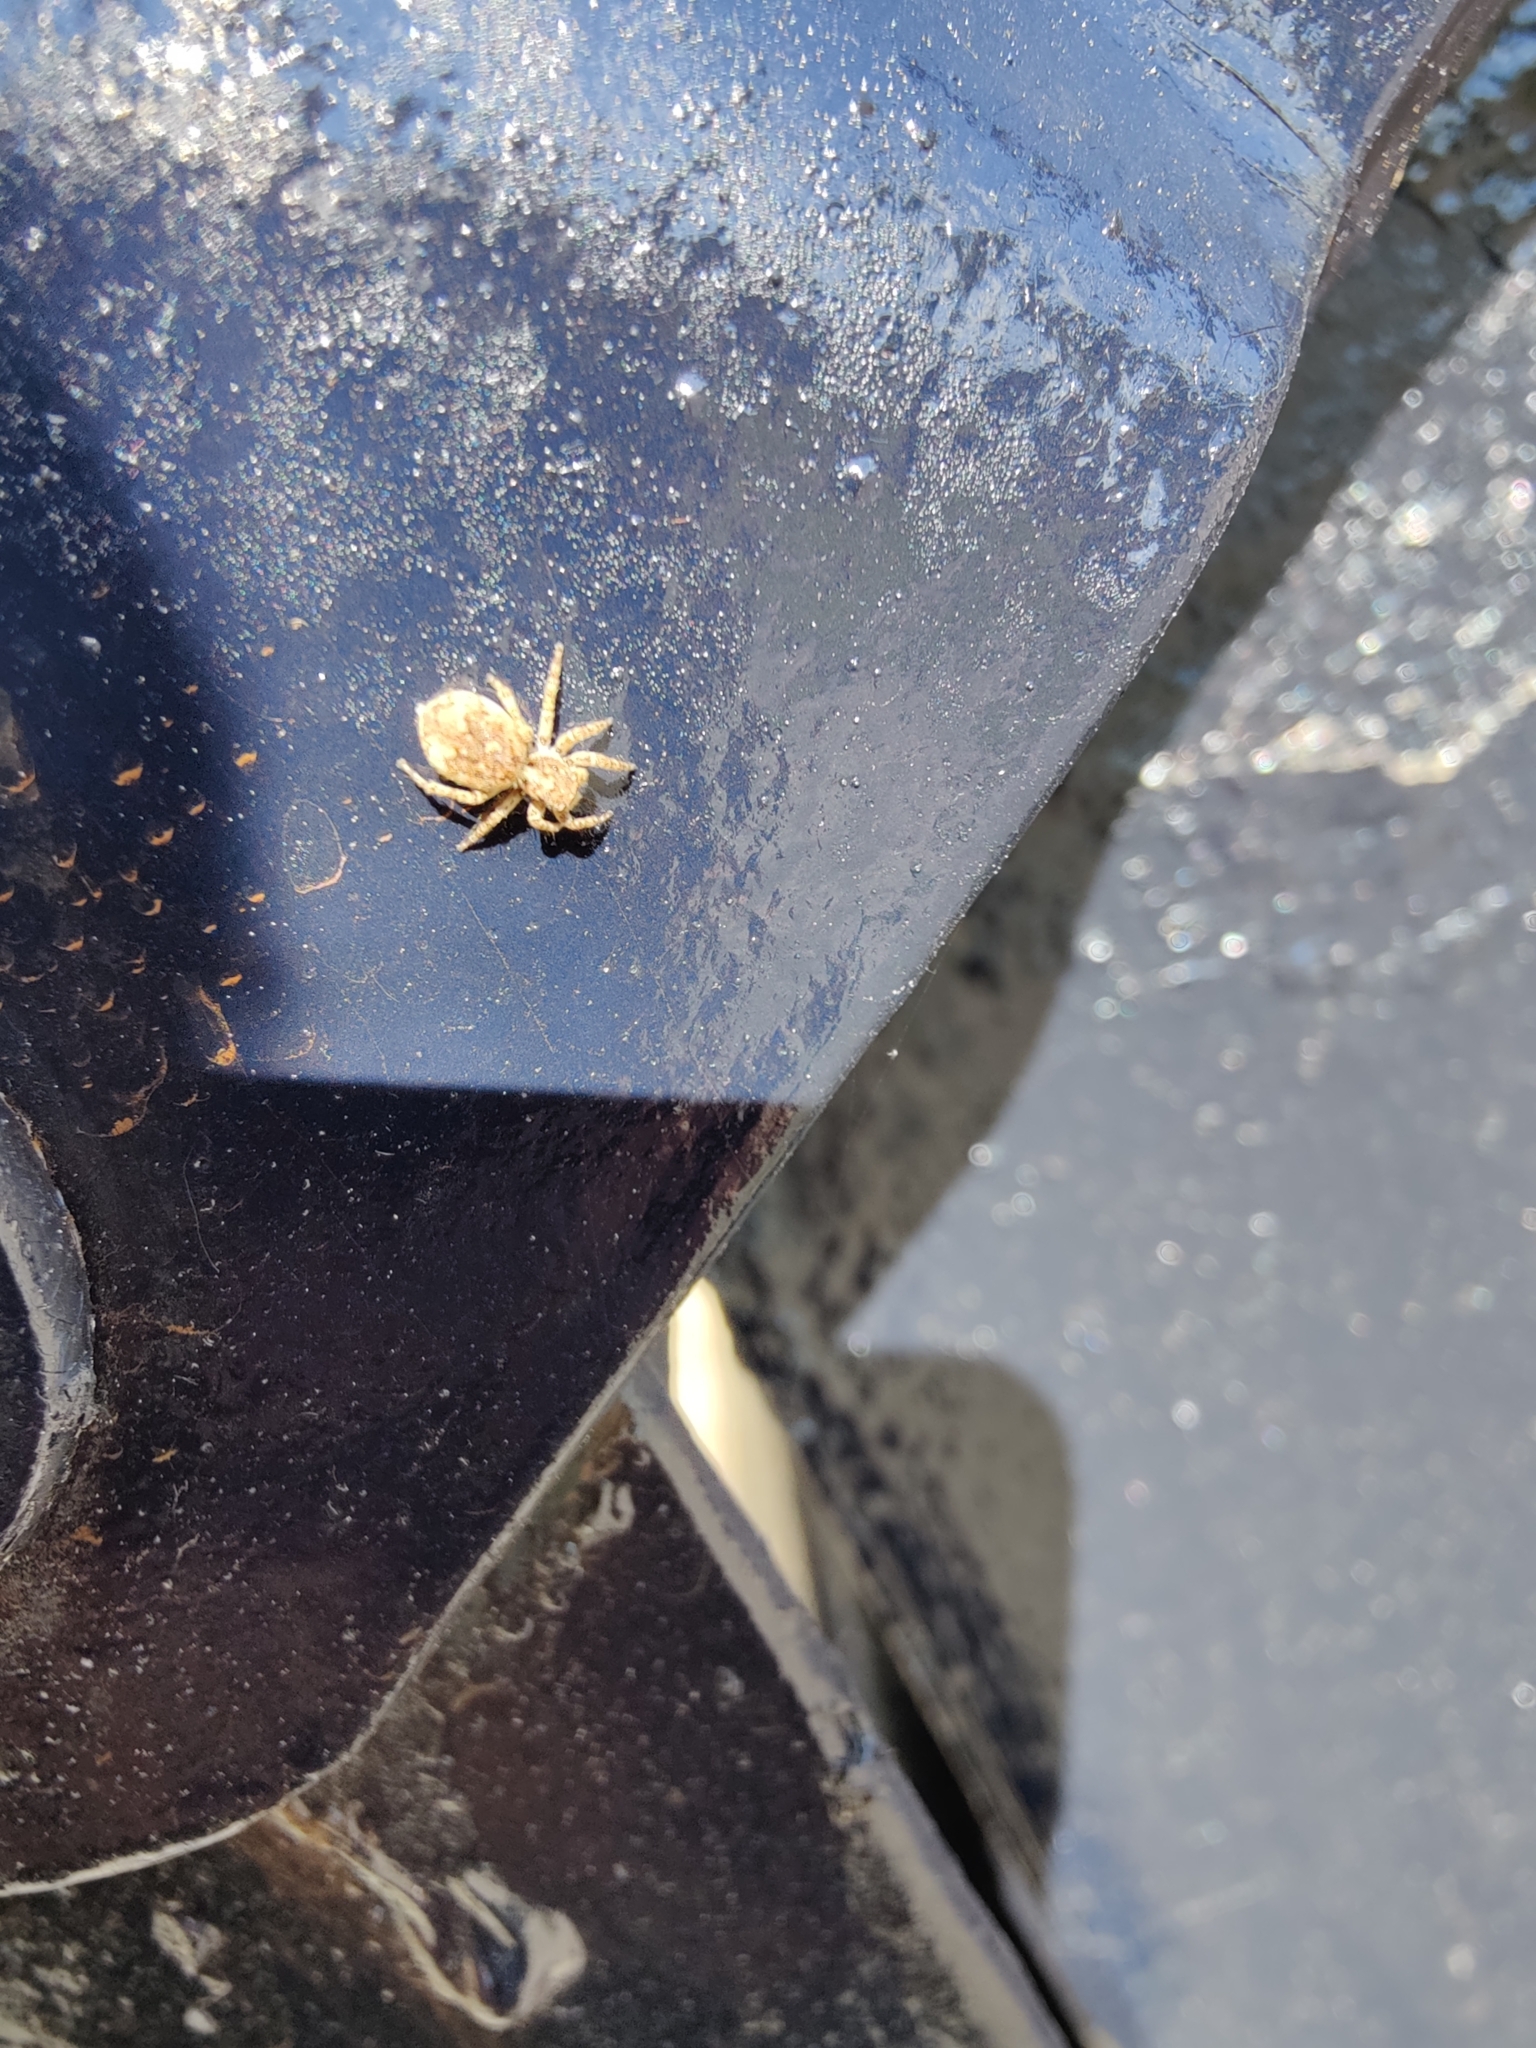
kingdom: Animalia
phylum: Arthropoda
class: Arachnida
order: Araneae
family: Salticidae
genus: Attulus
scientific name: Attulus fasciger
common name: Asiatic wall jumping spider
